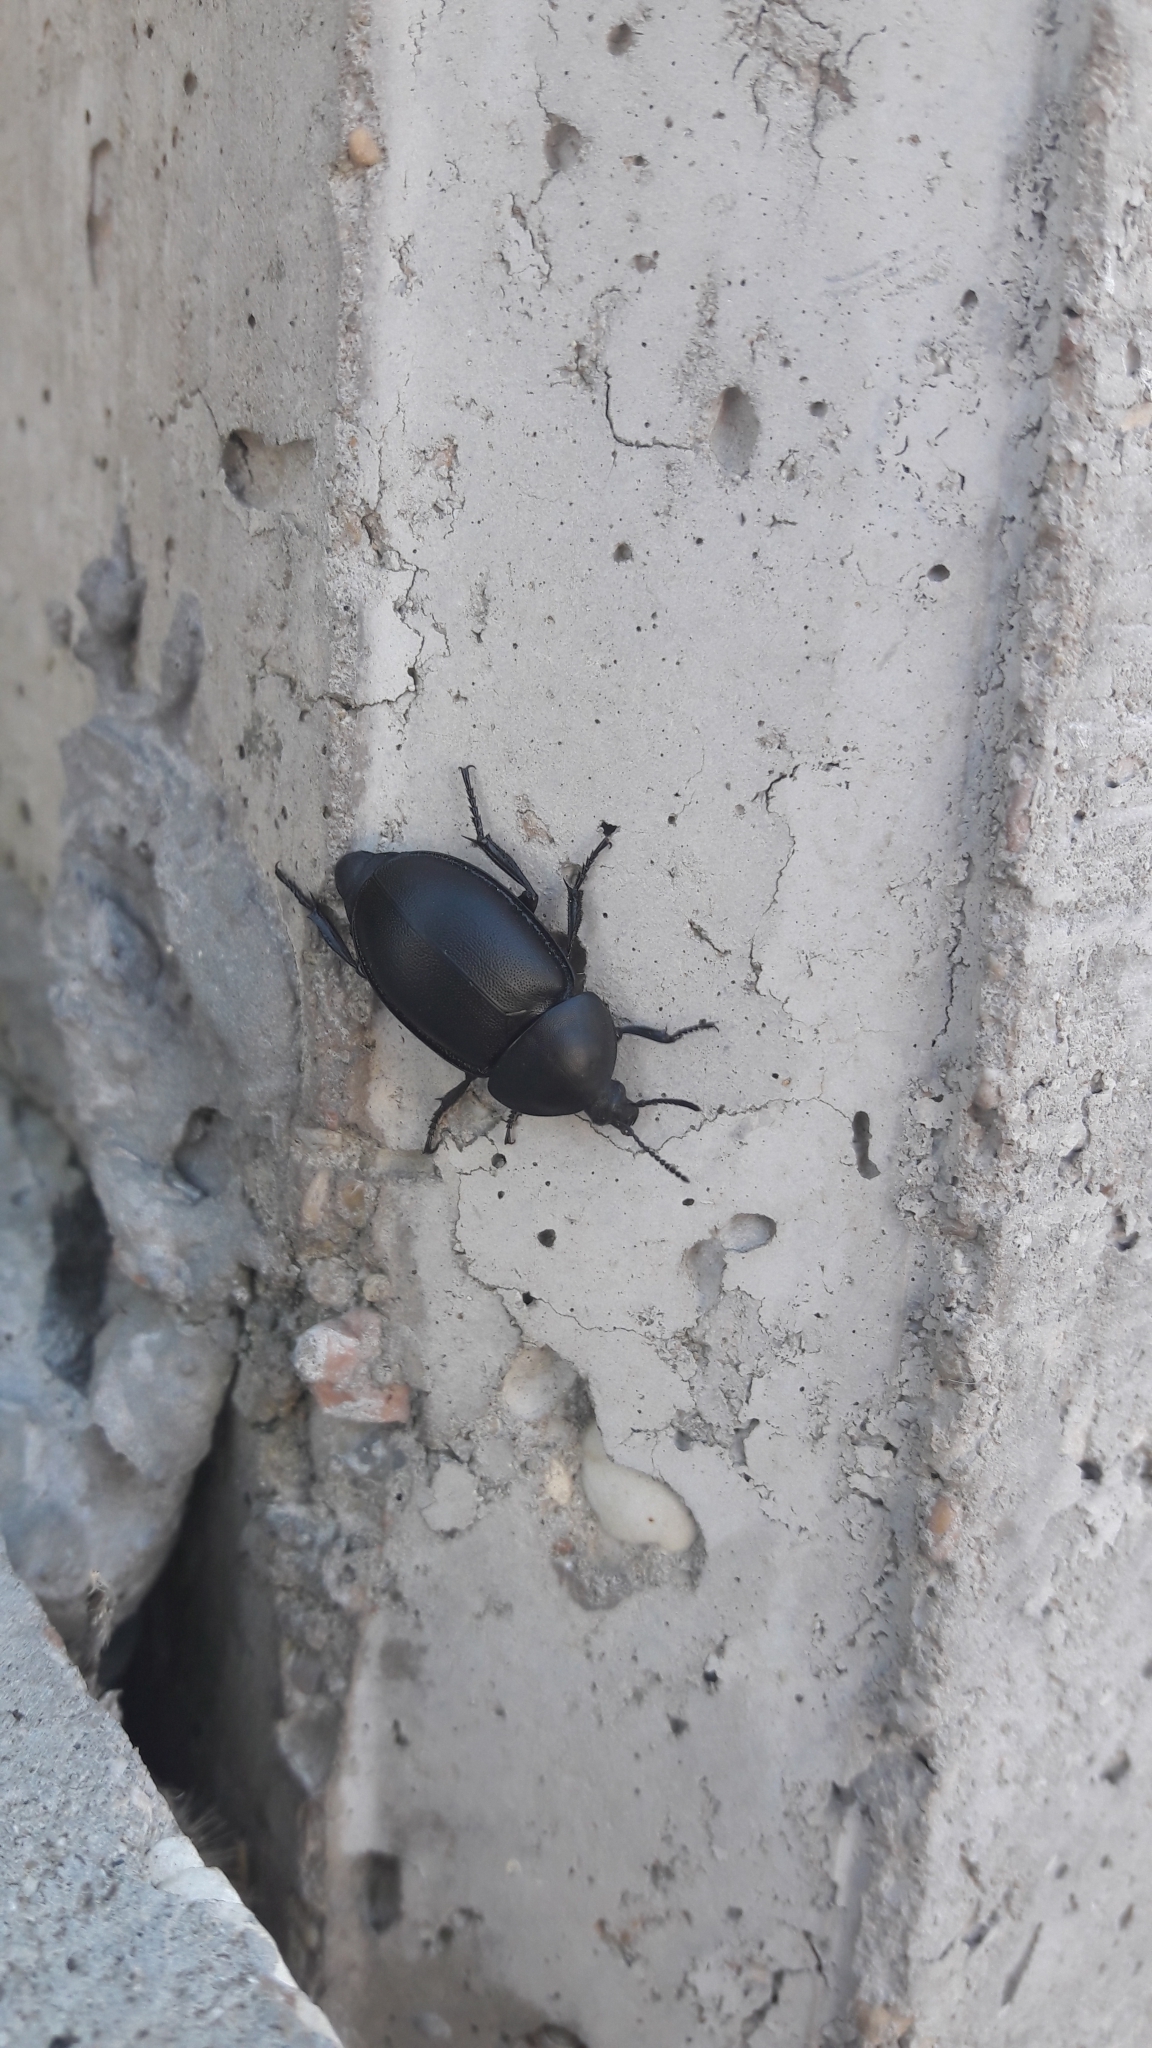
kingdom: Animalia
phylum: Arthropoda
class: Insecta
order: Coleoptera
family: Staphylinidae
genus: Silpha
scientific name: Silpha laevigata
